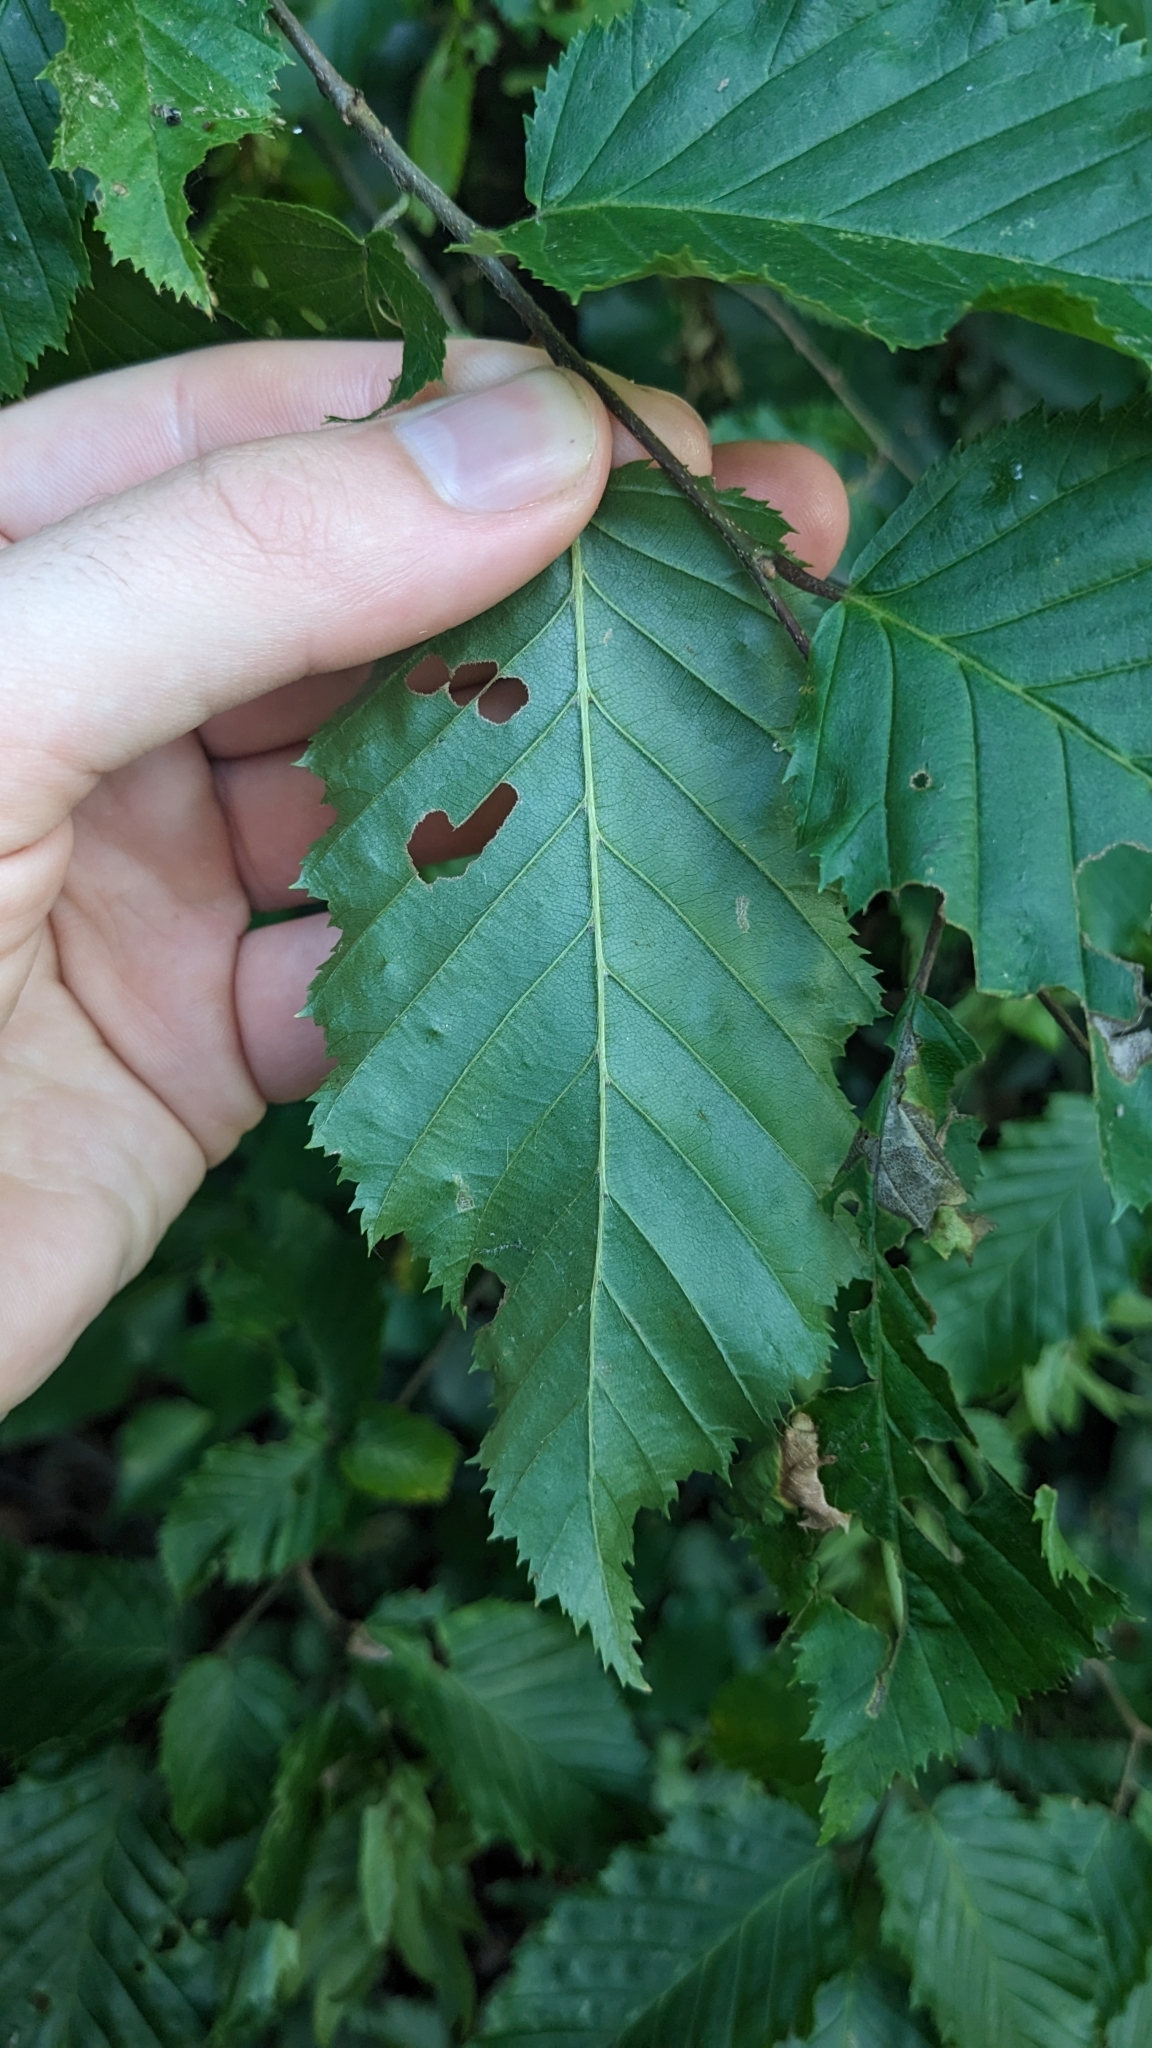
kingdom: Plantae
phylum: Tracheophyta
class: Magnoliopsida
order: Fagales
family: Betulaceae
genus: Carpinus
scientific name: Carpinus betulus
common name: Hornbeam
